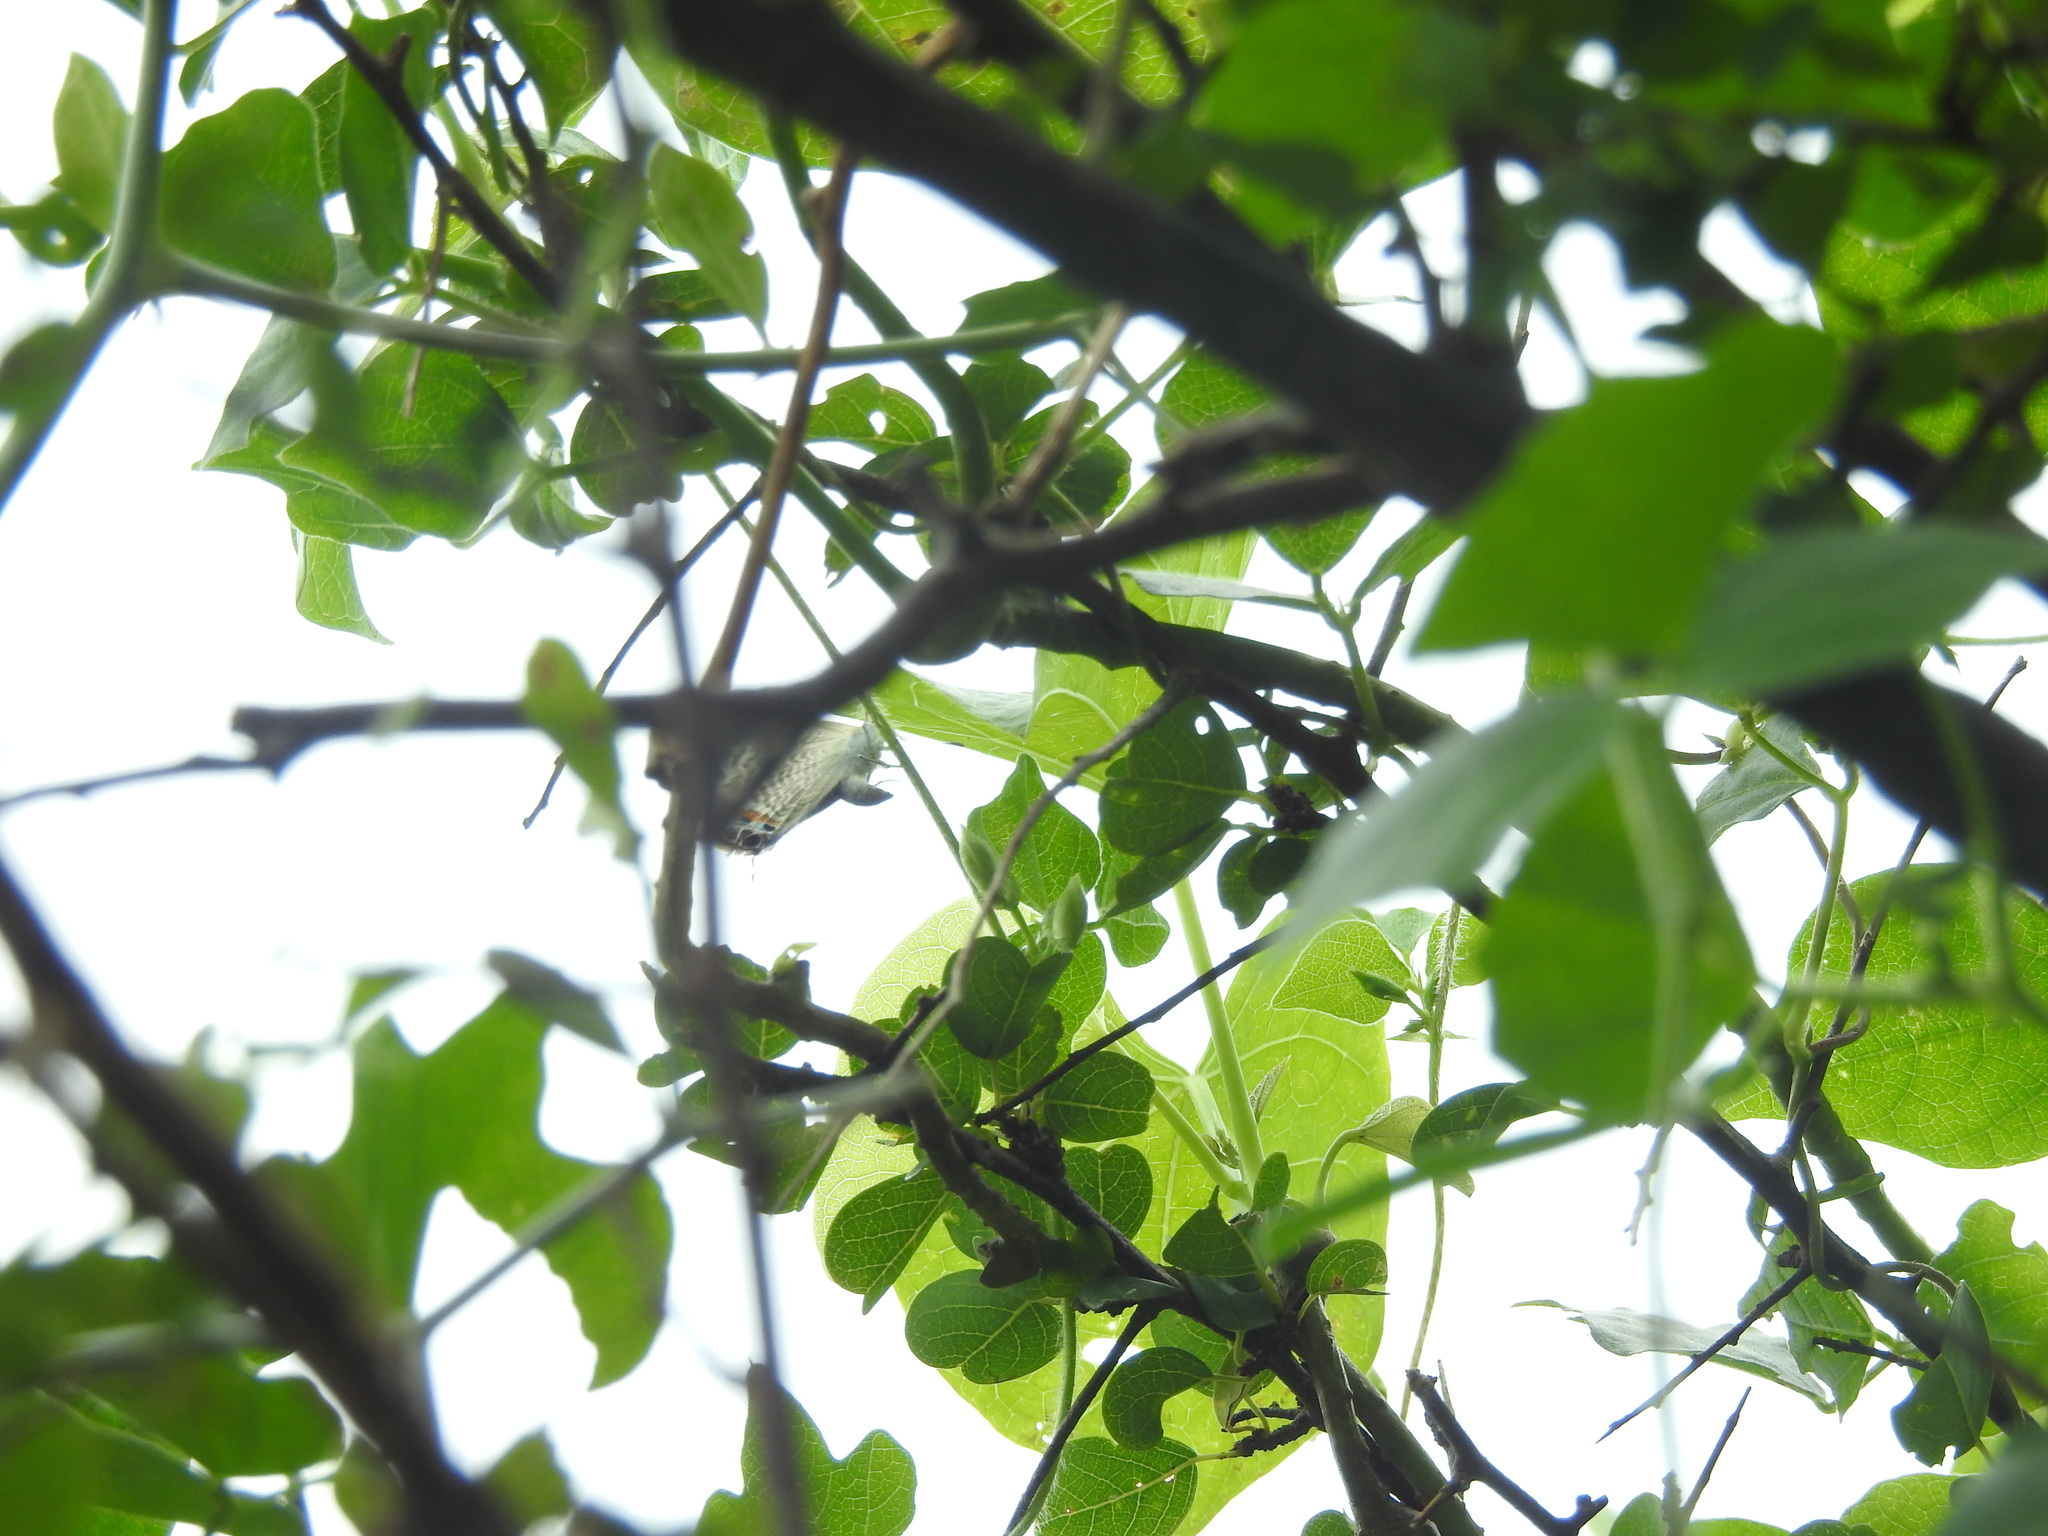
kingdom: Animalia
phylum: Arthropoda
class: Insecta
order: Lepidoptera
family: Lycaenidae
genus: Lampides
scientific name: Lampides boeticus
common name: Long-tailed blue
